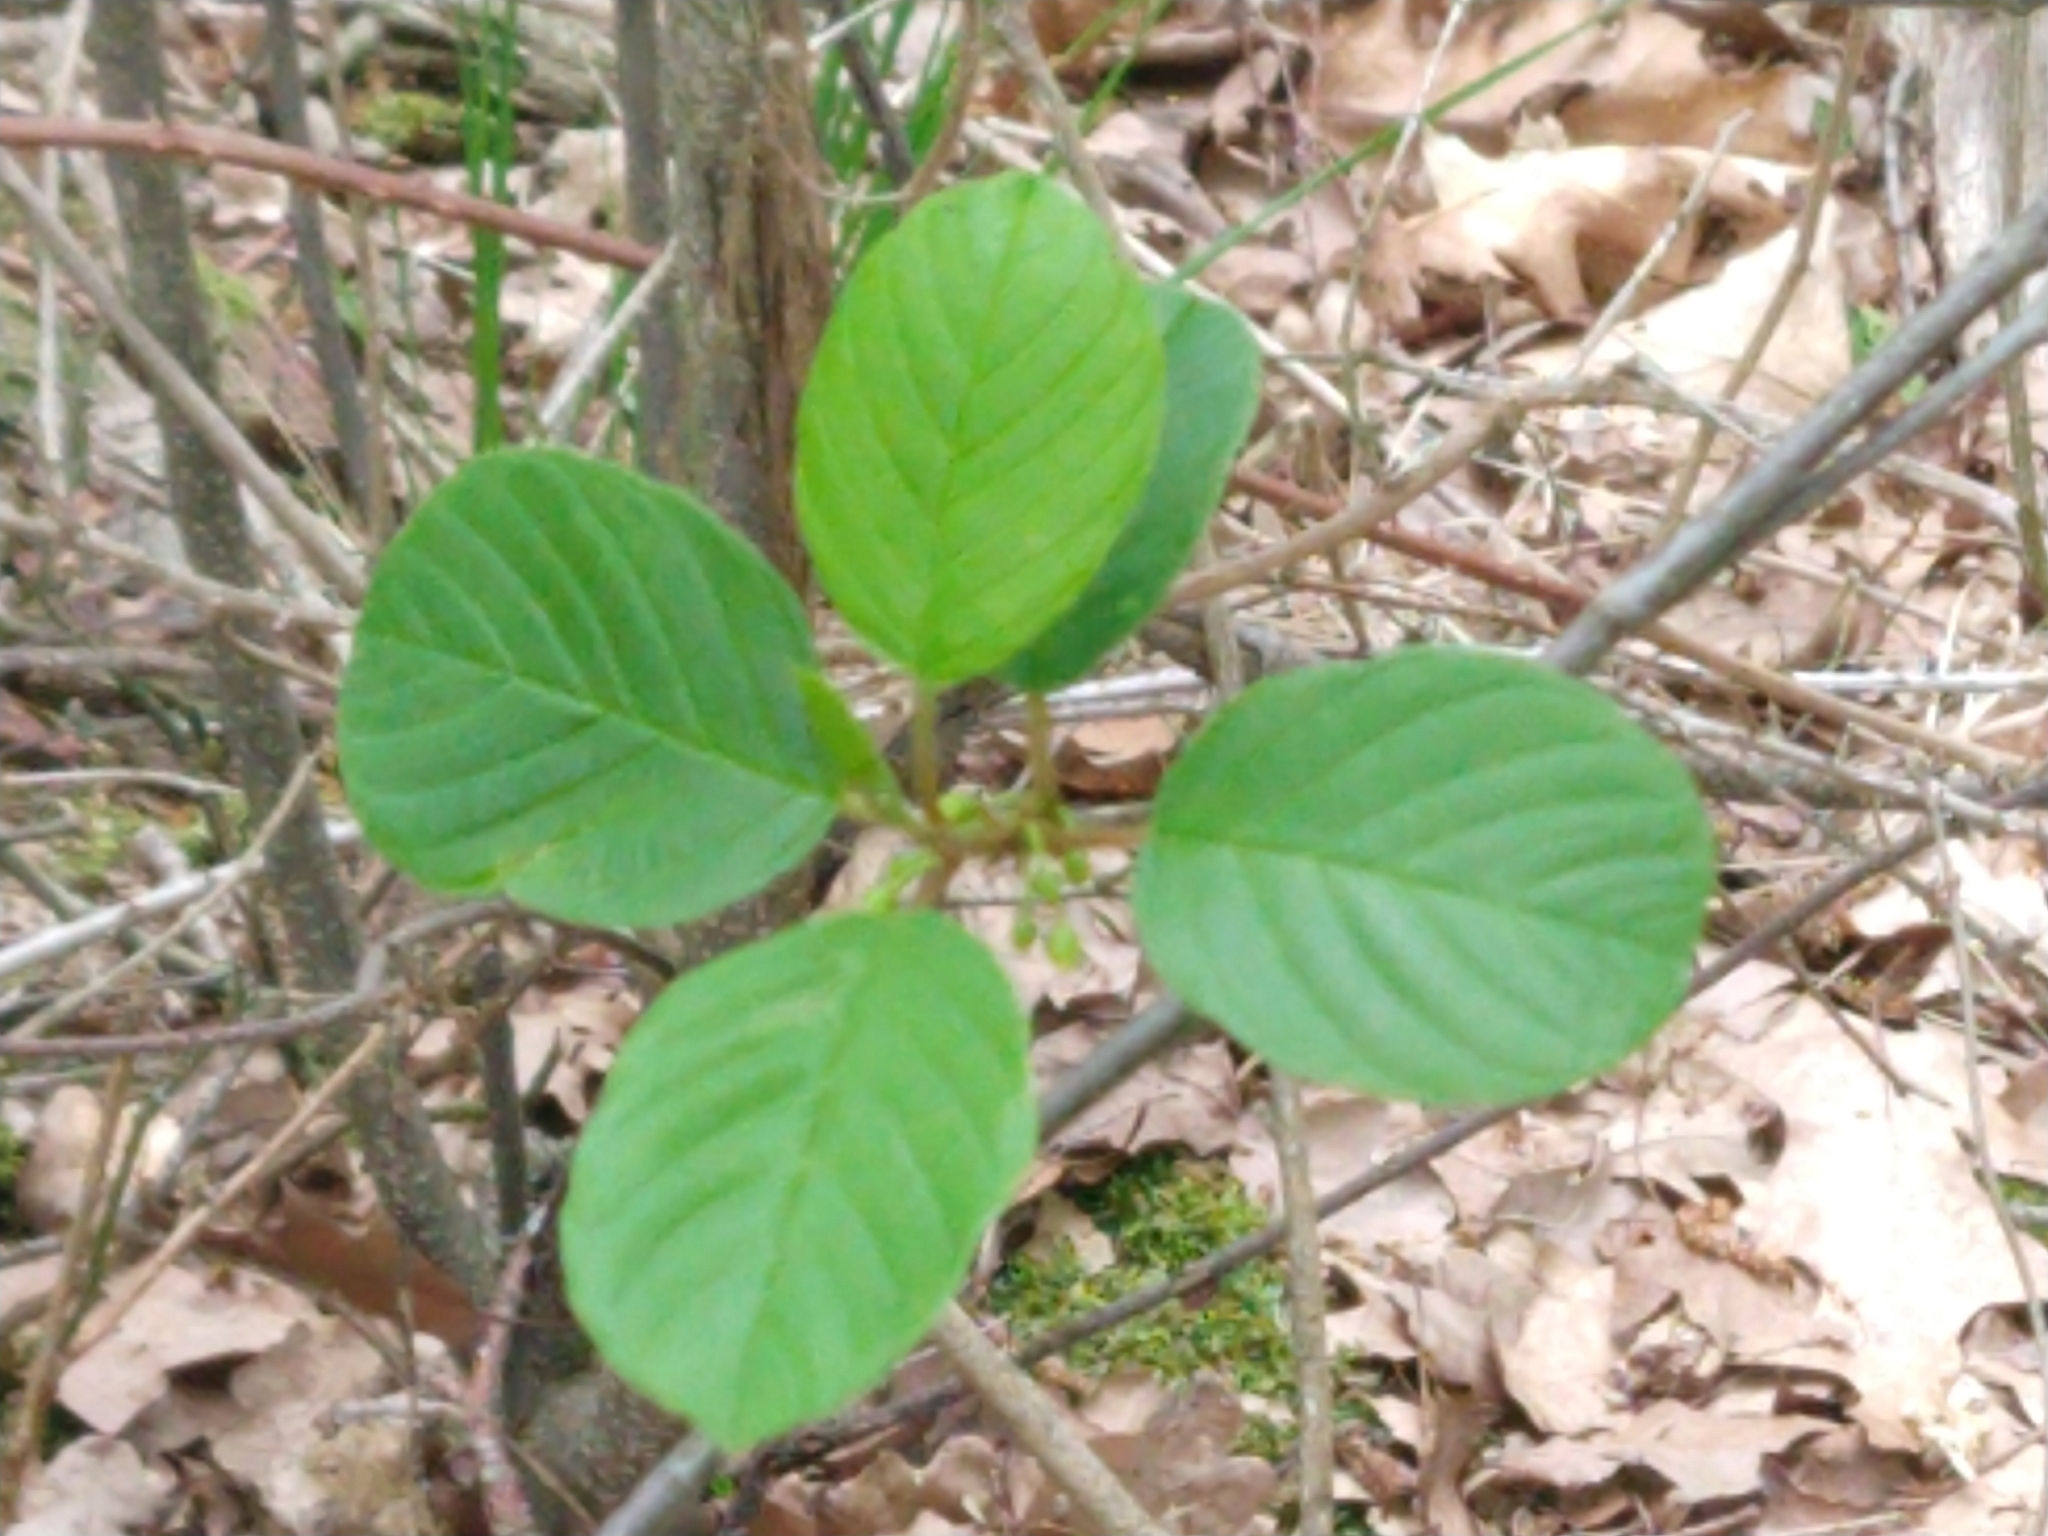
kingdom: Plantae
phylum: Tracheophyta
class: Magnoliopsida
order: Rosales
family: Rhamnaceae
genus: Frangula
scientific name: Frangula alnus
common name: Alder buckthorn
